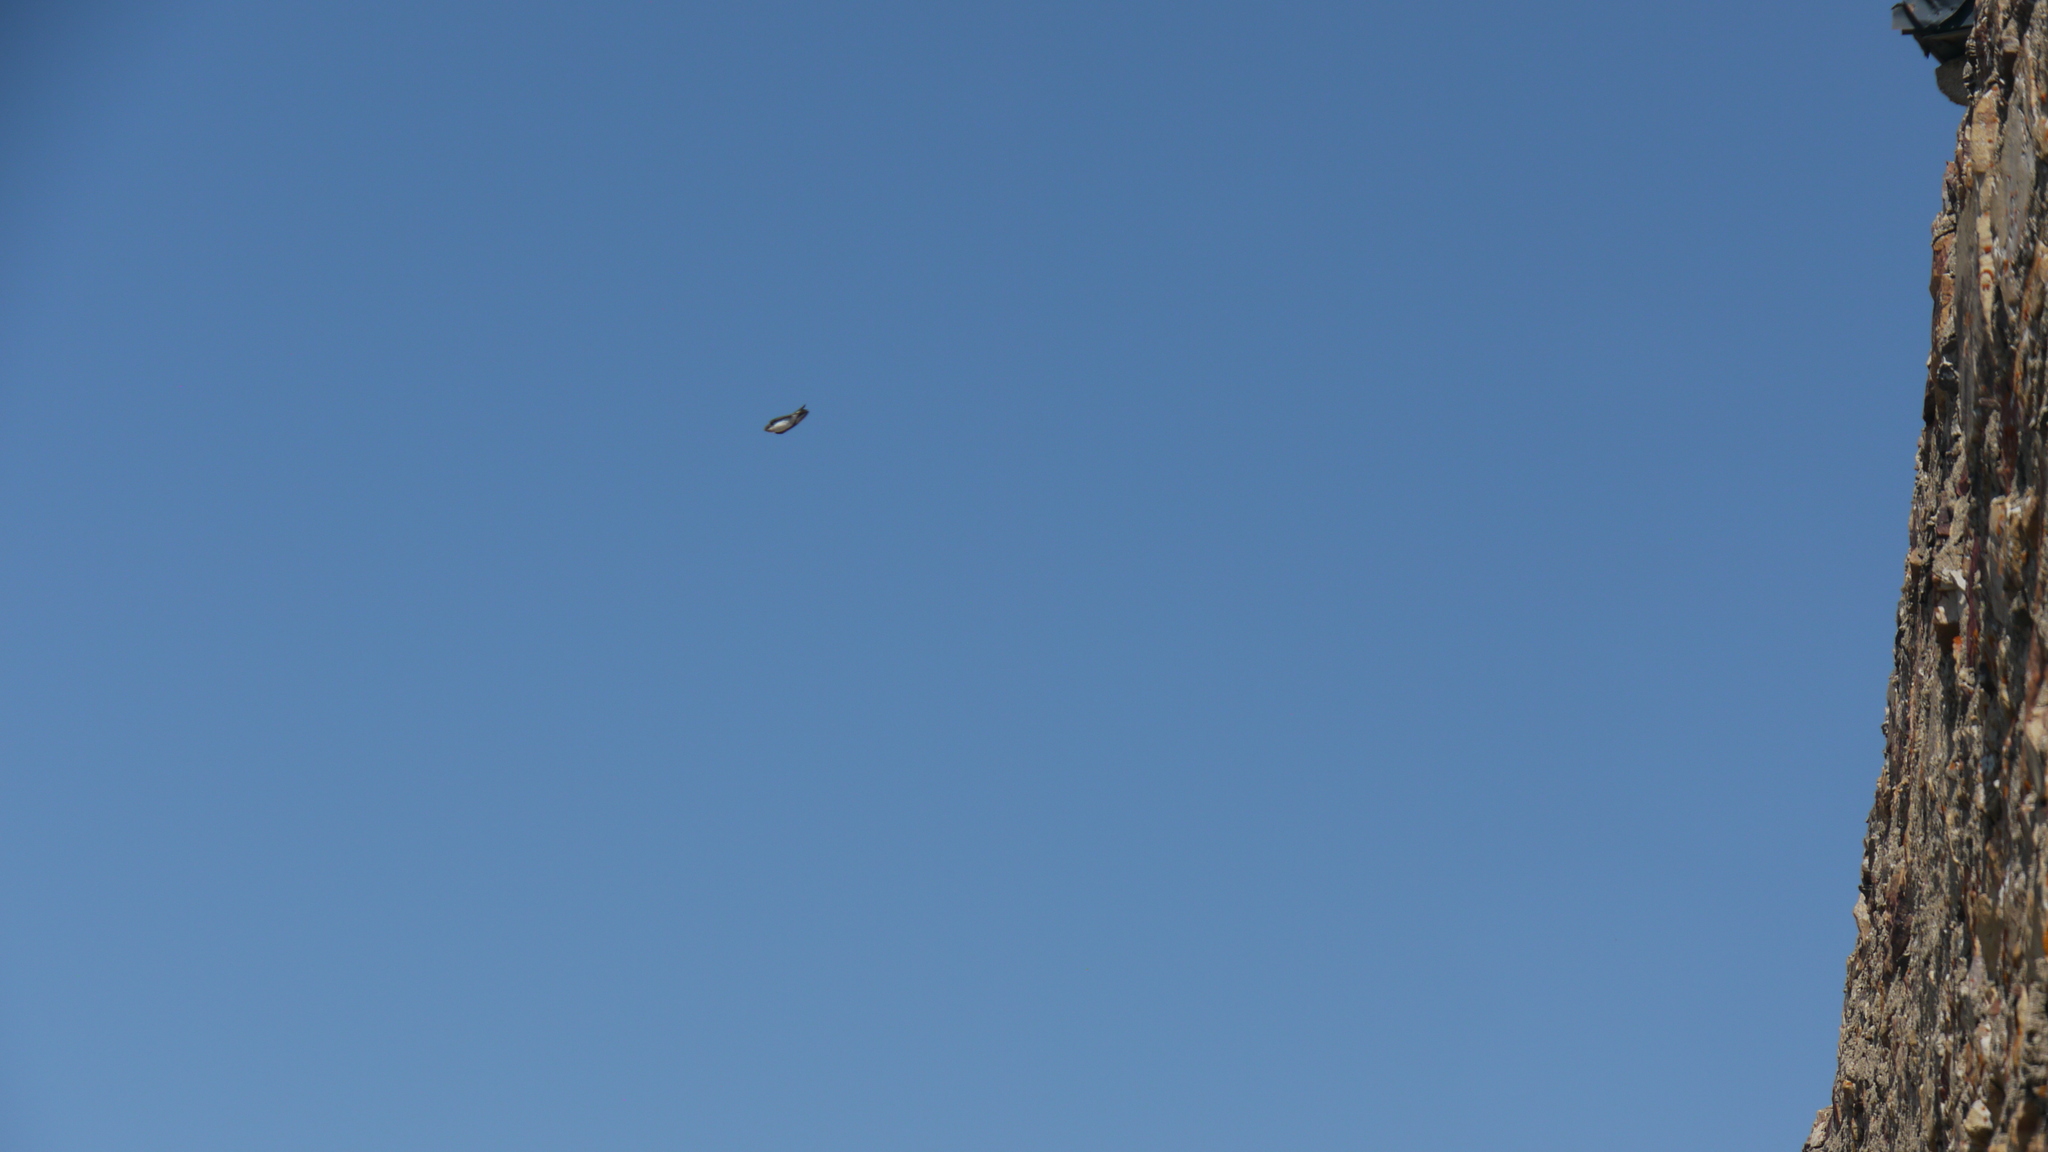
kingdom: Animalia
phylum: Chordata
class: Aves
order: Passeriformes
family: Hirundinidae
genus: Delichon
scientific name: Delichon urbicum
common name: Common house martin
